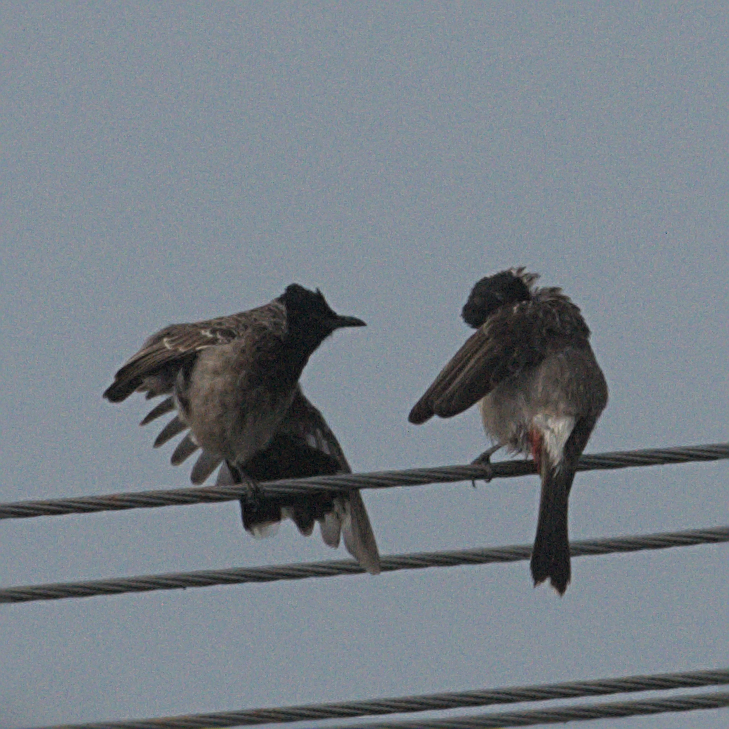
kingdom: Animalia
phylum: Chordata
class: Aves
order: Passeriformes
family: Pycnonotidae
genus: Pycnonotus
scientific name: Pycnonotus cafer
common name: Red-vented bulbul
